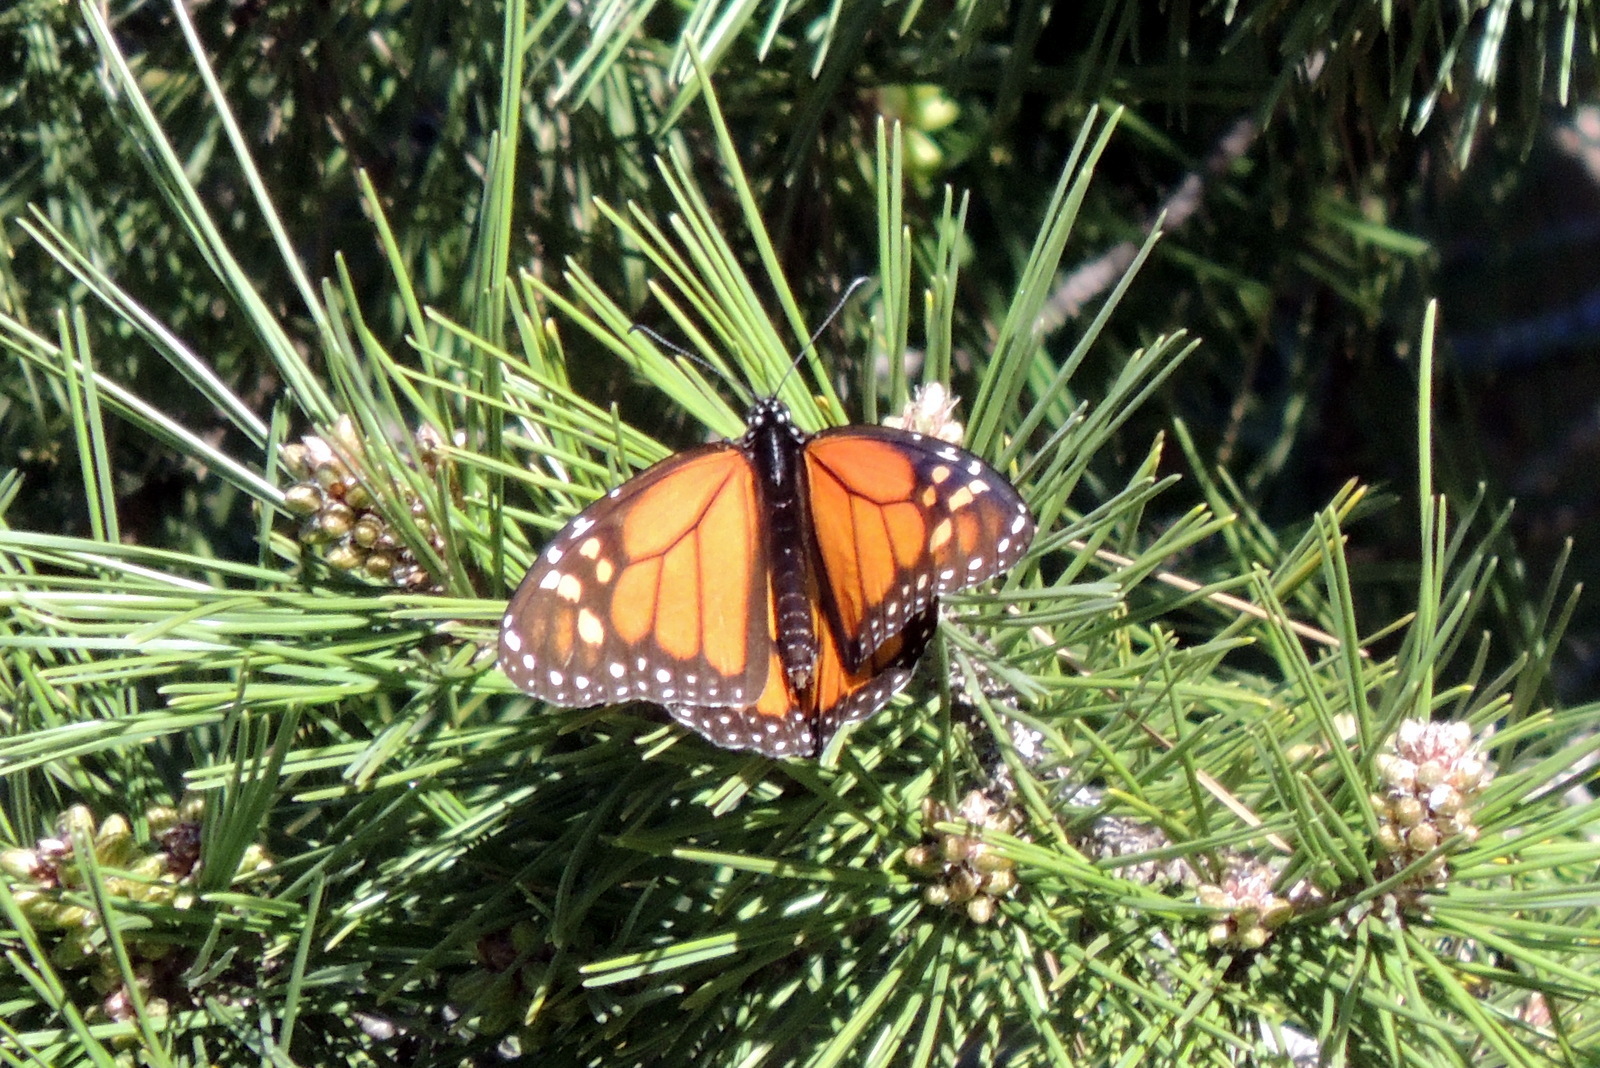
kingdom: Animalia
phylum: Arthropoda
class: Insecta
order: Lepidoptera
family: Nymphalidae
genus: Danaus
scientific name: Danaus plexippus
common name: Monarch
